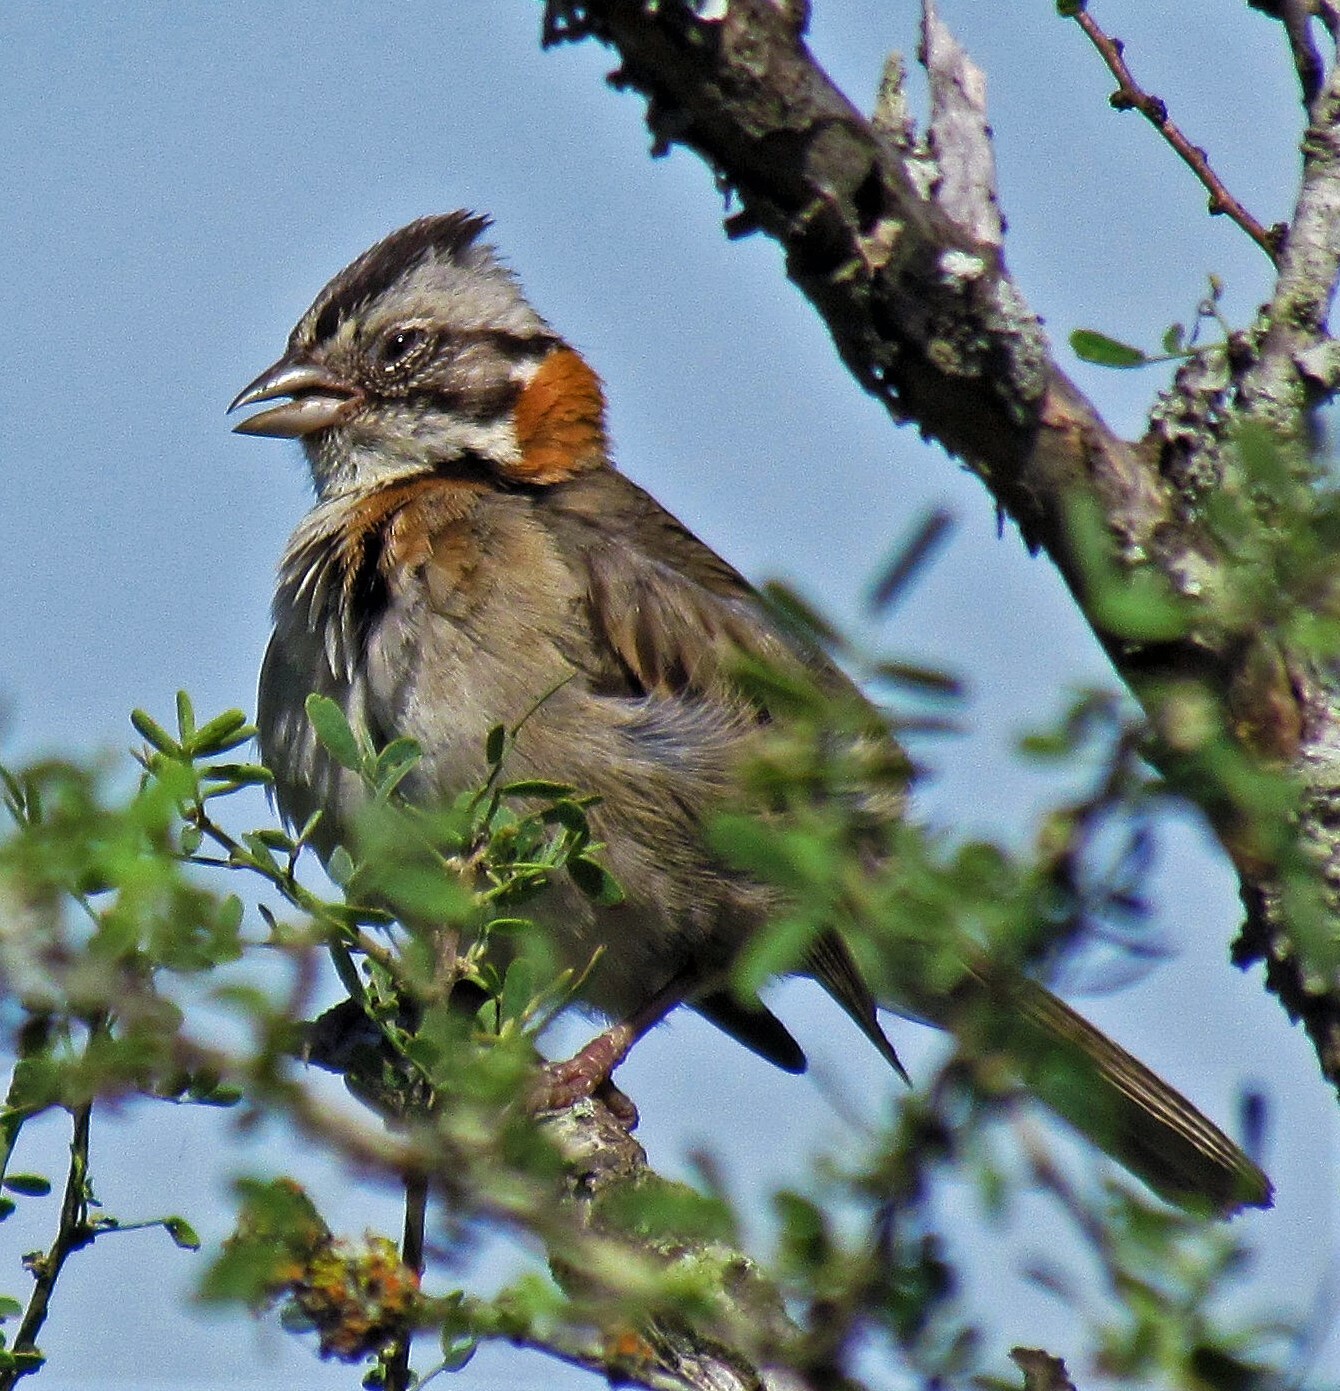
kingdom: Animalia
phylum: Chordata
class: Aves
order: Passeriformes
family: Passerellidae
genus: Zonotrichia
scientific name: Zonotrichia capensis
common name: Rufous-collared sparrow
